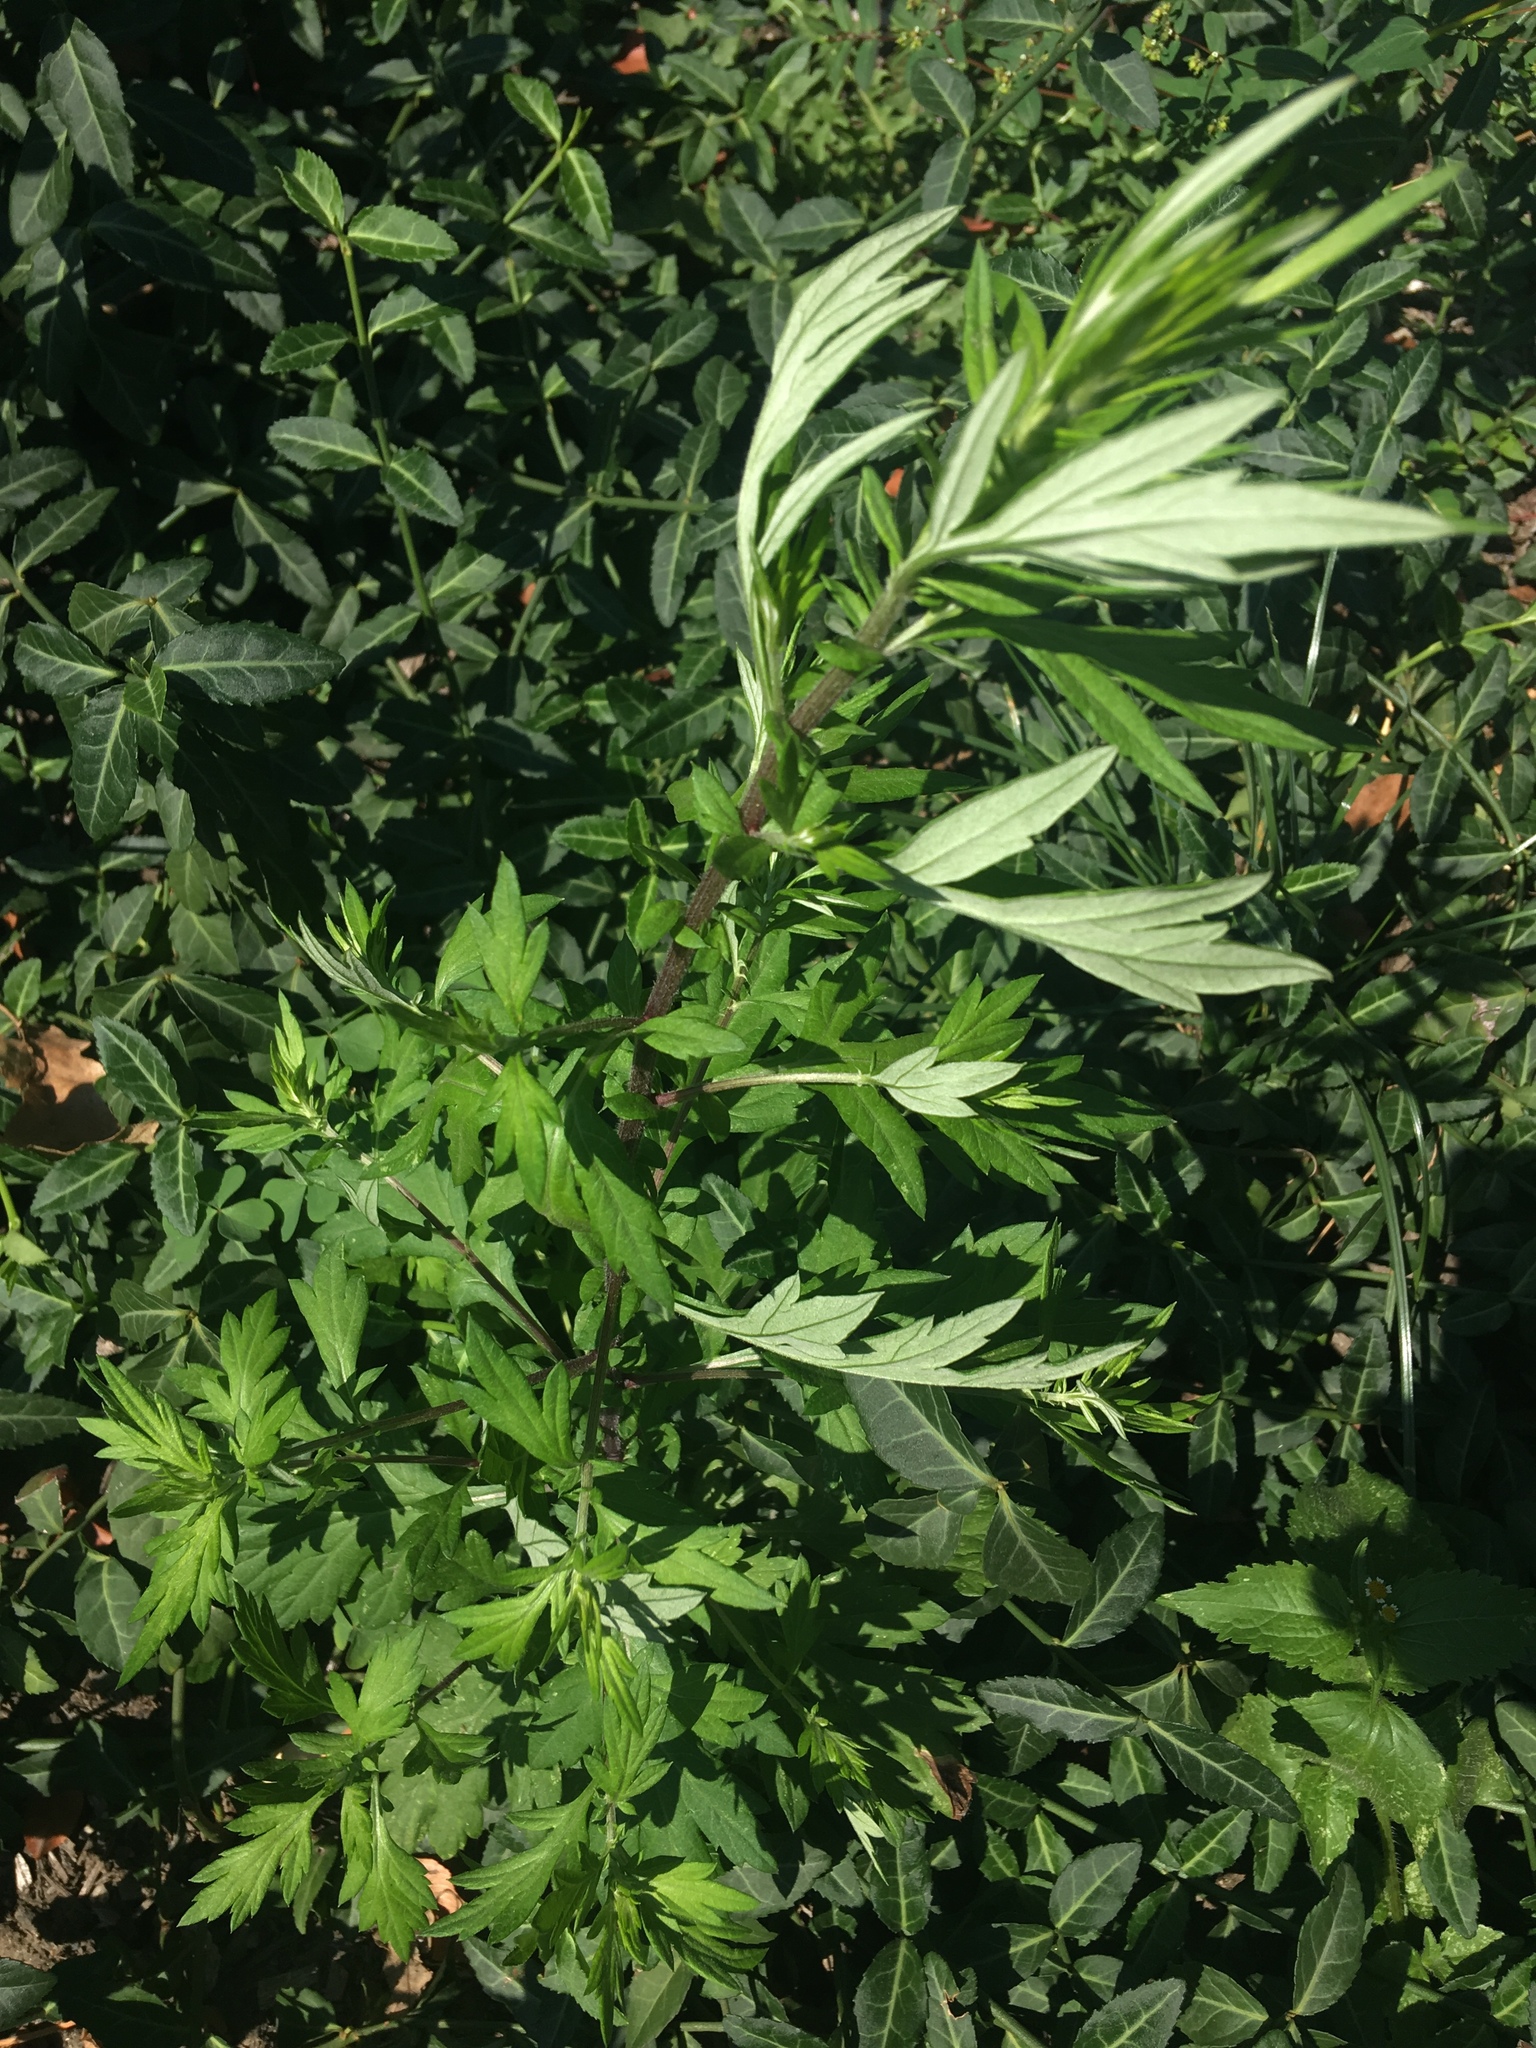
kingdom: Plantae
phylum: Tracheophyta
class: Magnoliopsida
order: Asterales
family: Asteraceae
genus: Artemisia
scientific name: Artemisia vulgaris
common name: Mugwort
